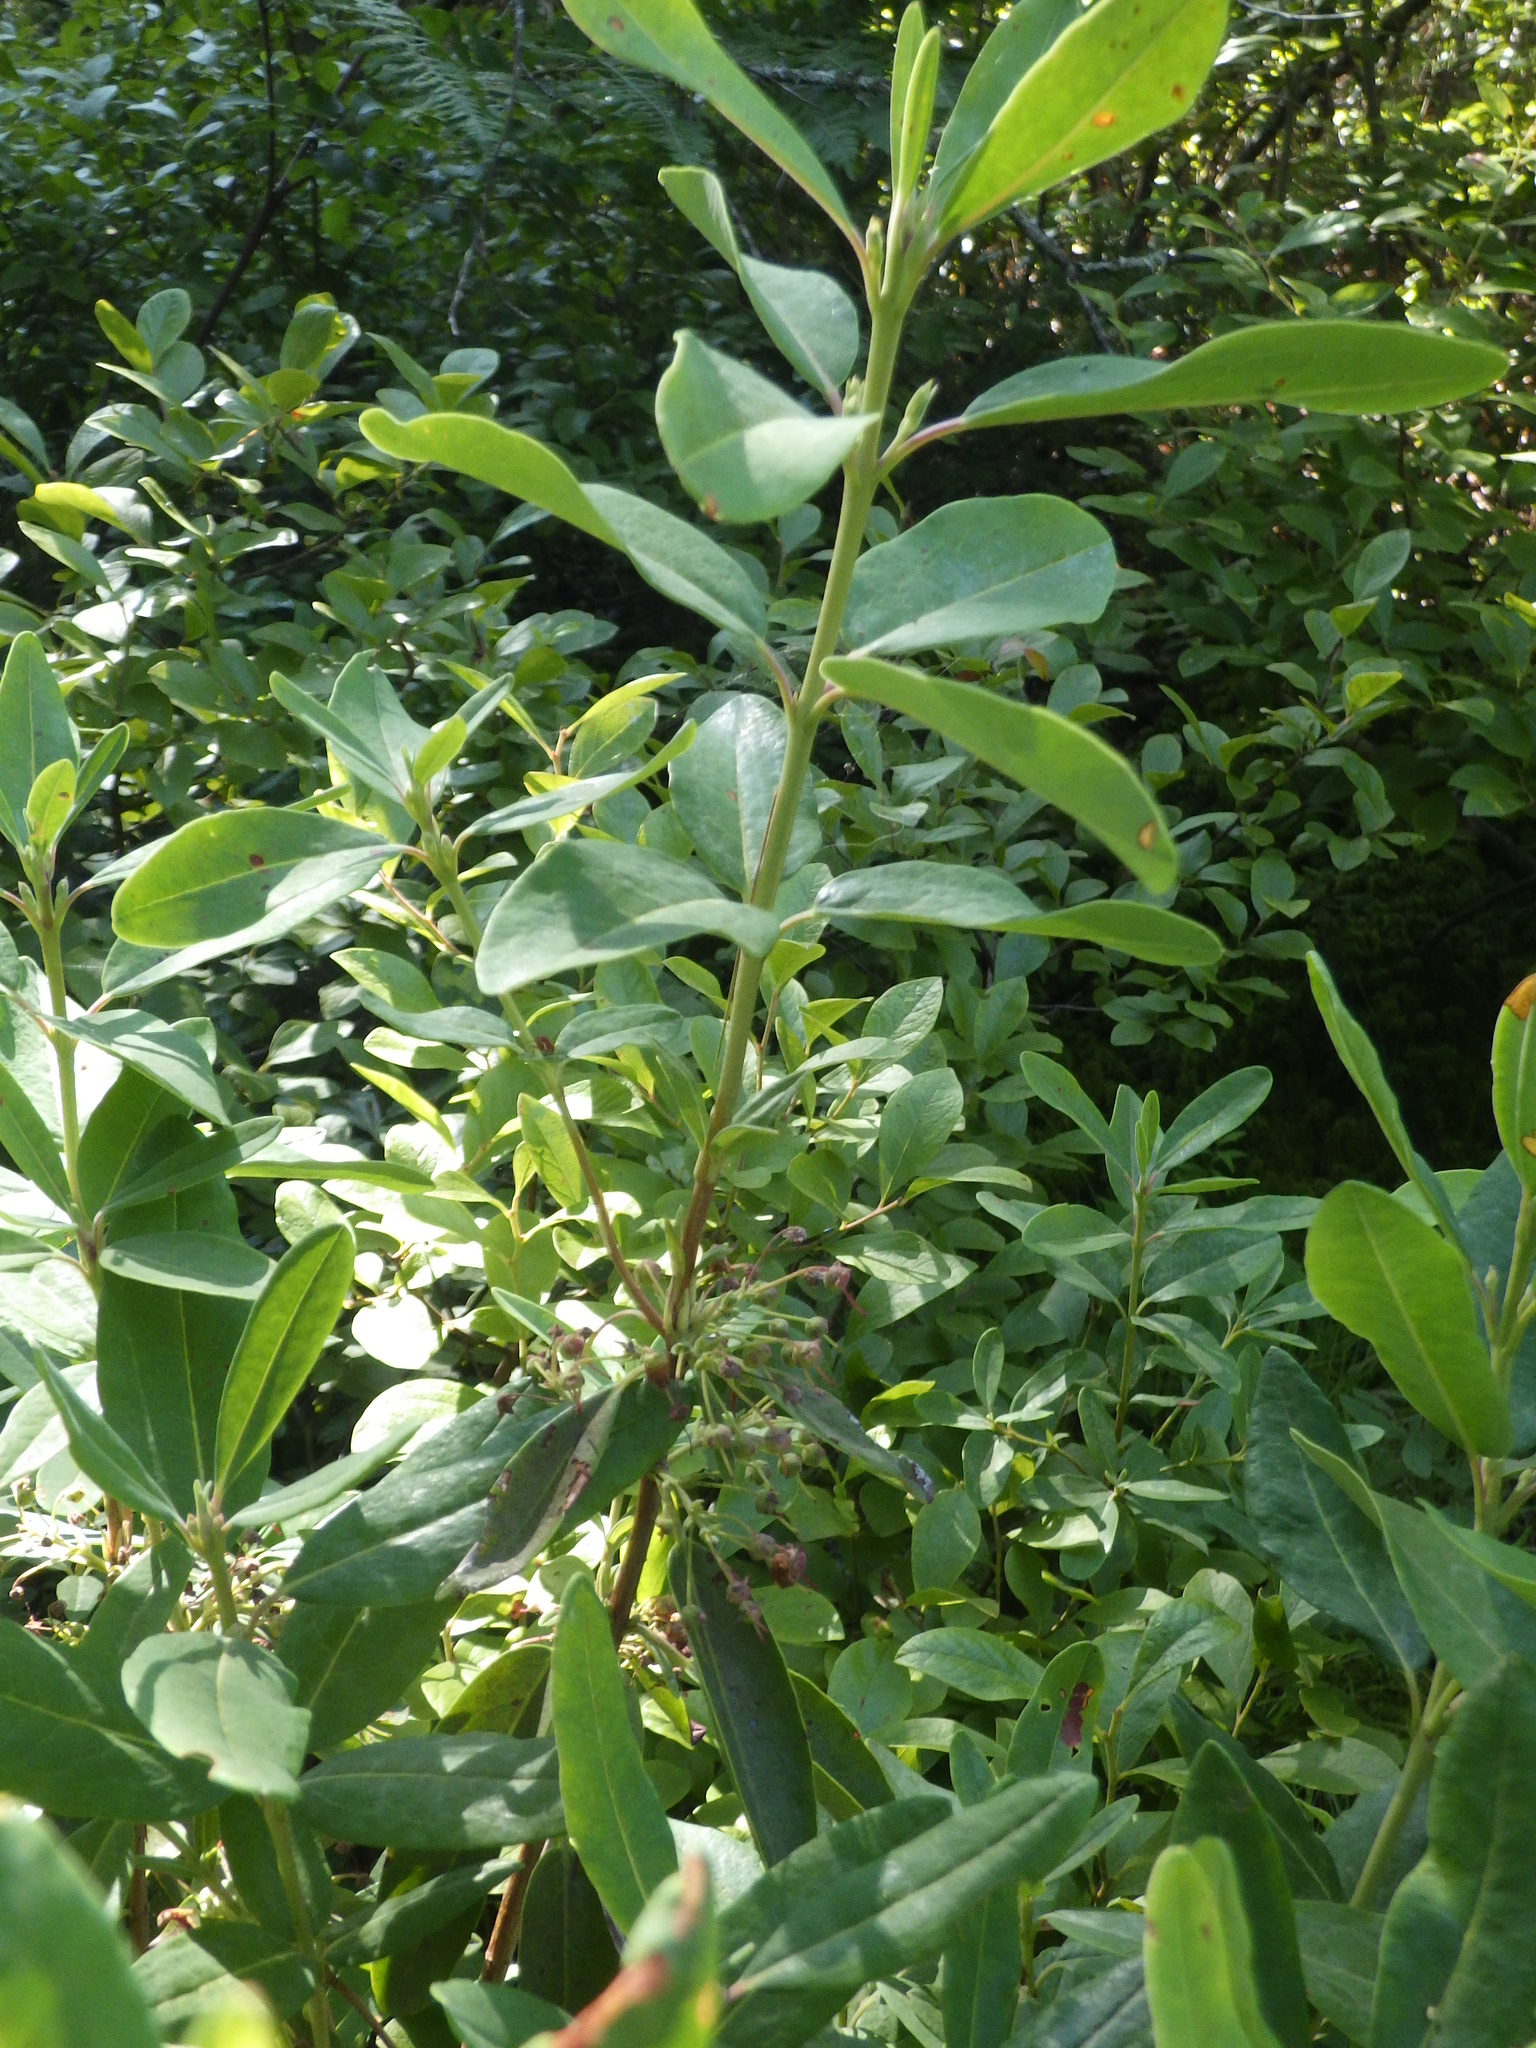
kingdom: Plantae
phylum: Tracheophyta
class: Magnoliopsida
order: Ericales
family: Ericaceae
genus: Kalmia
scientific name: Kalmia angustifolia
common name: Sheep-laurel
